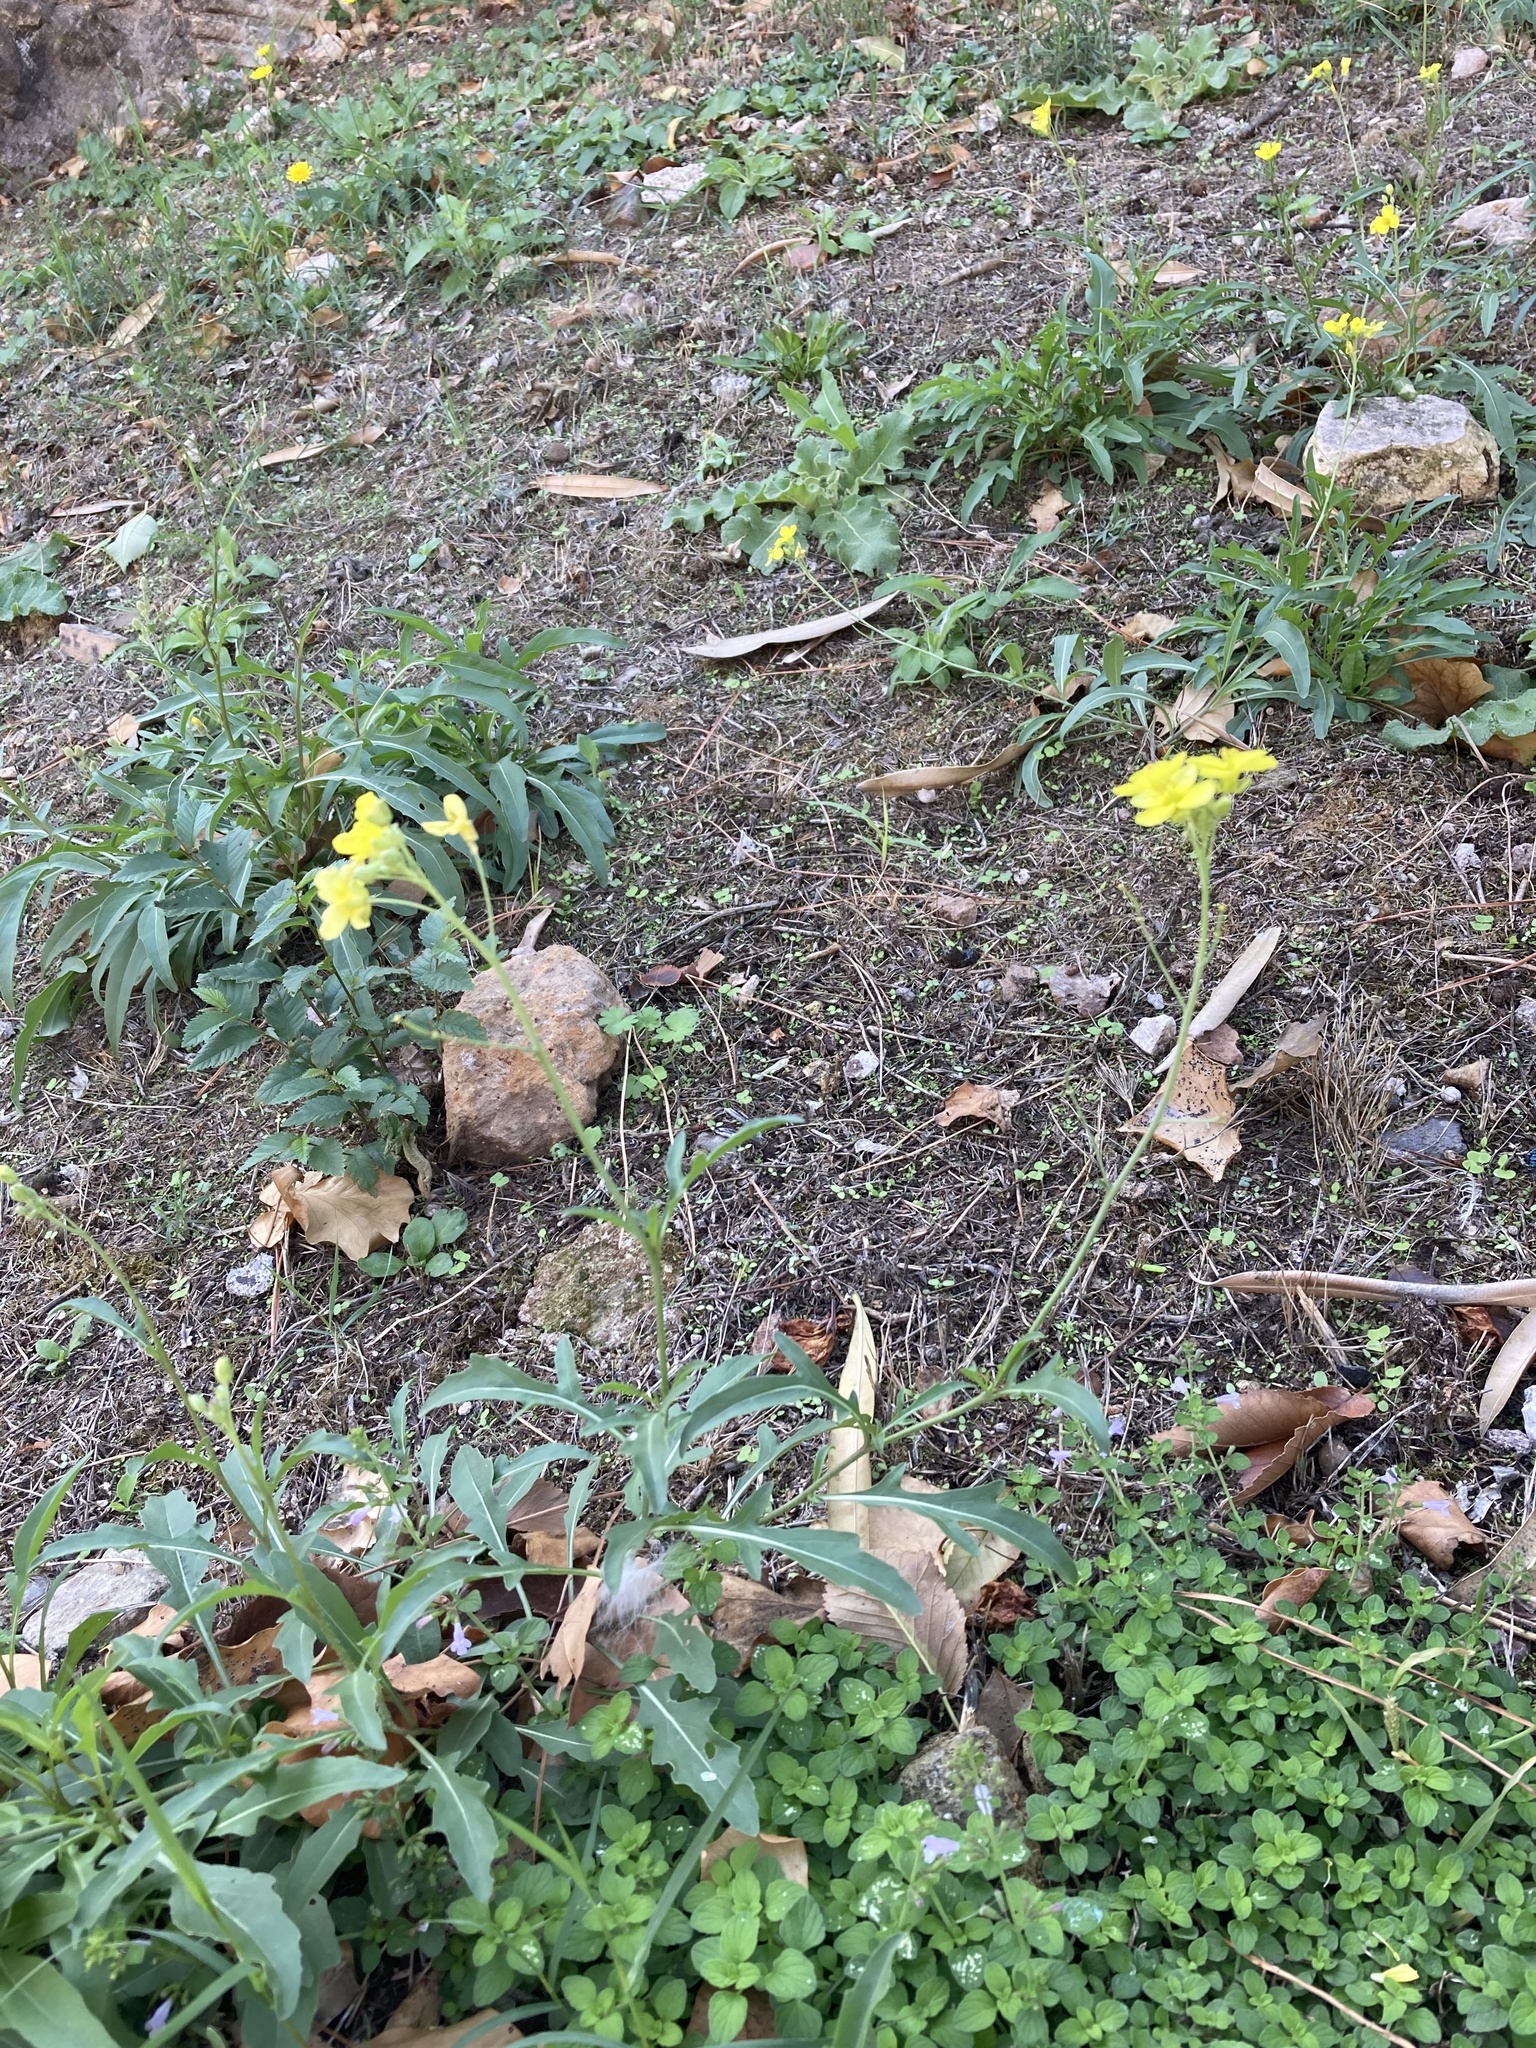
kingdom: Plantae
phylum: Tracheophyta
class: Magnoliopsida
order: Brassicales
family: Brassicaceae
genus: Diplotaxis
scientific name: Diplotaxis tenuifolia
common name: Perennial wall-rocket
